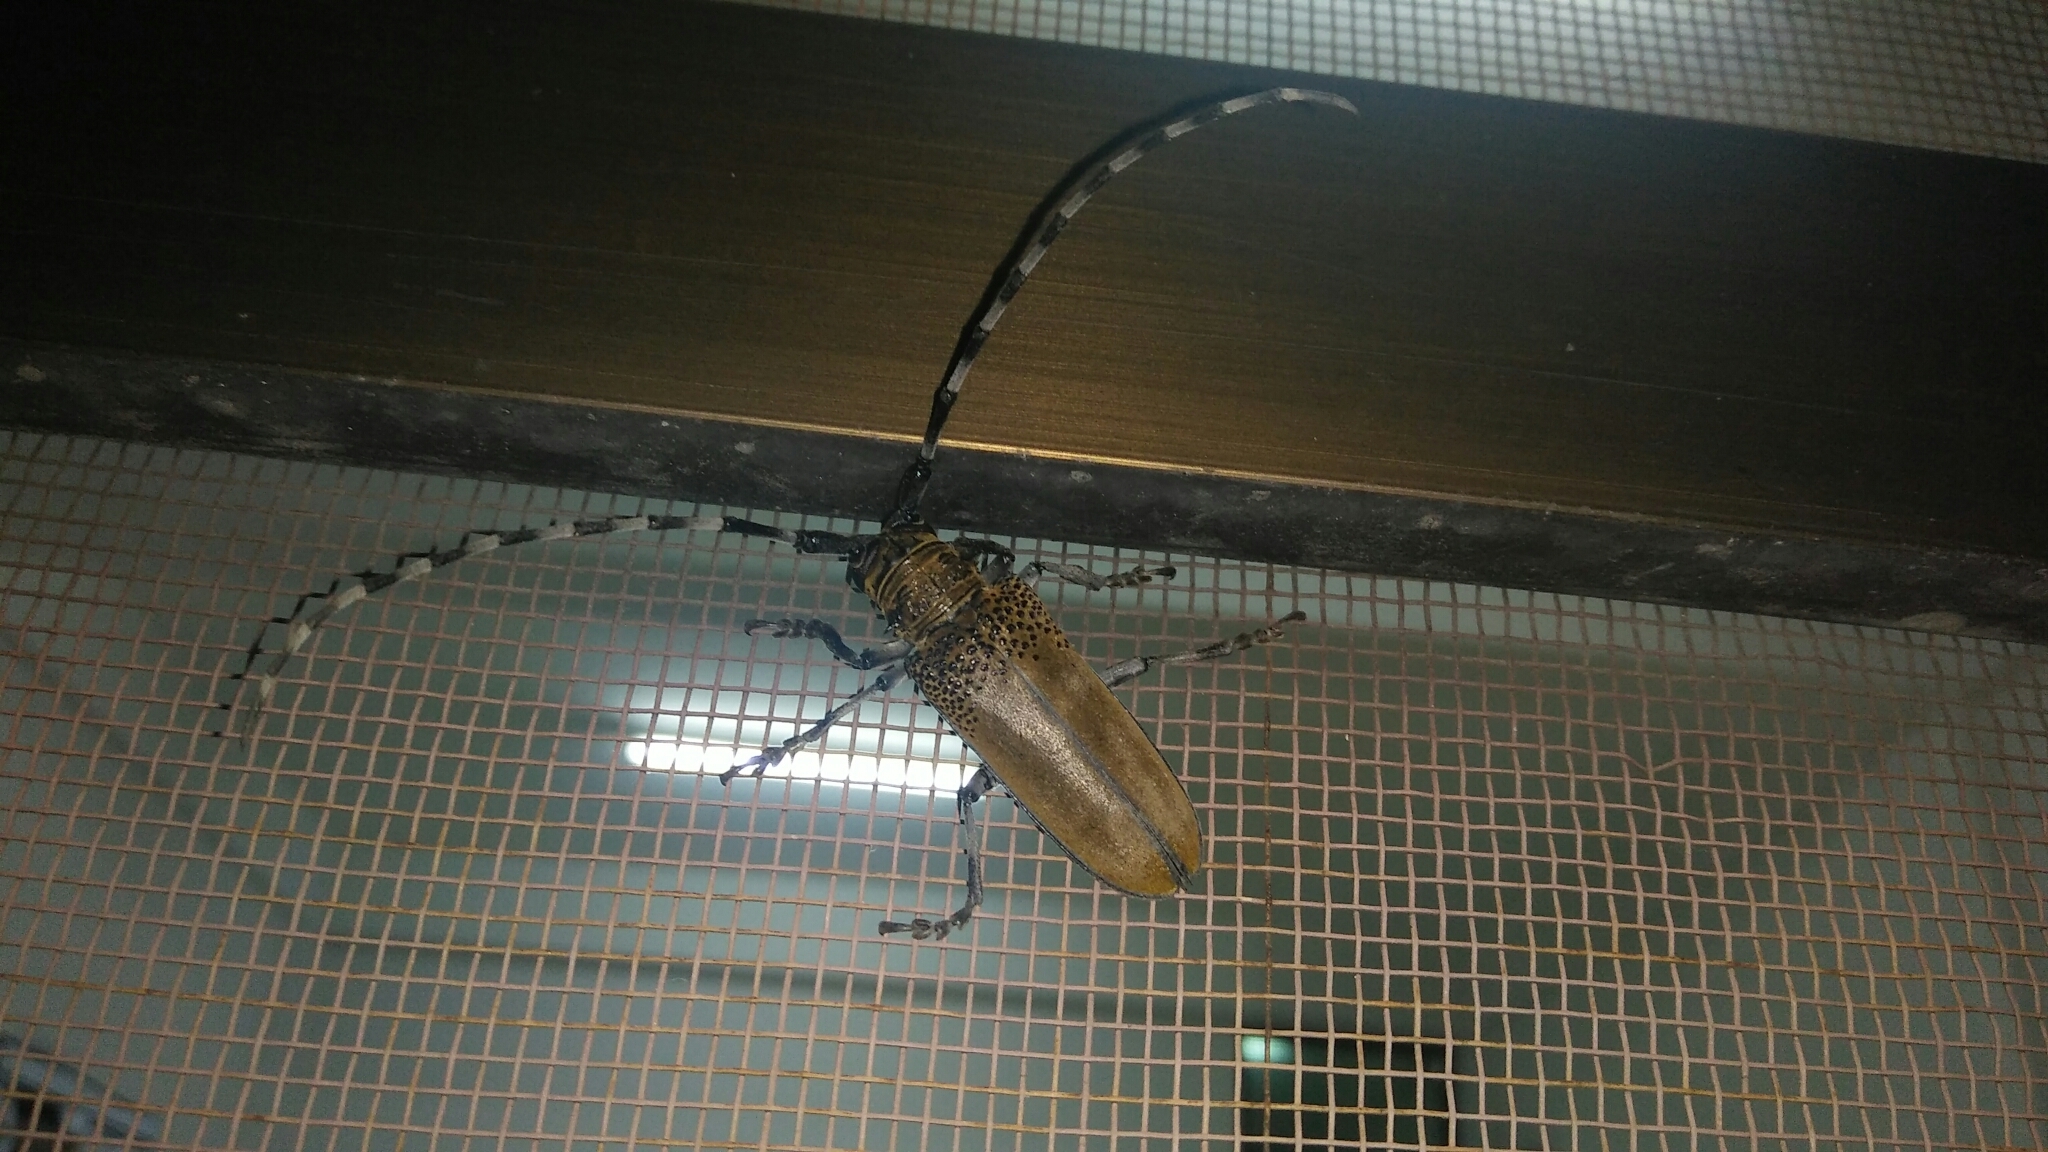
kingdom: Animalia
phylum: Arthropoda
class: Insecta
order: Coleoptera
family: Cerambycidae
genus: Apriona
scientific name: Apriona rugicollis
